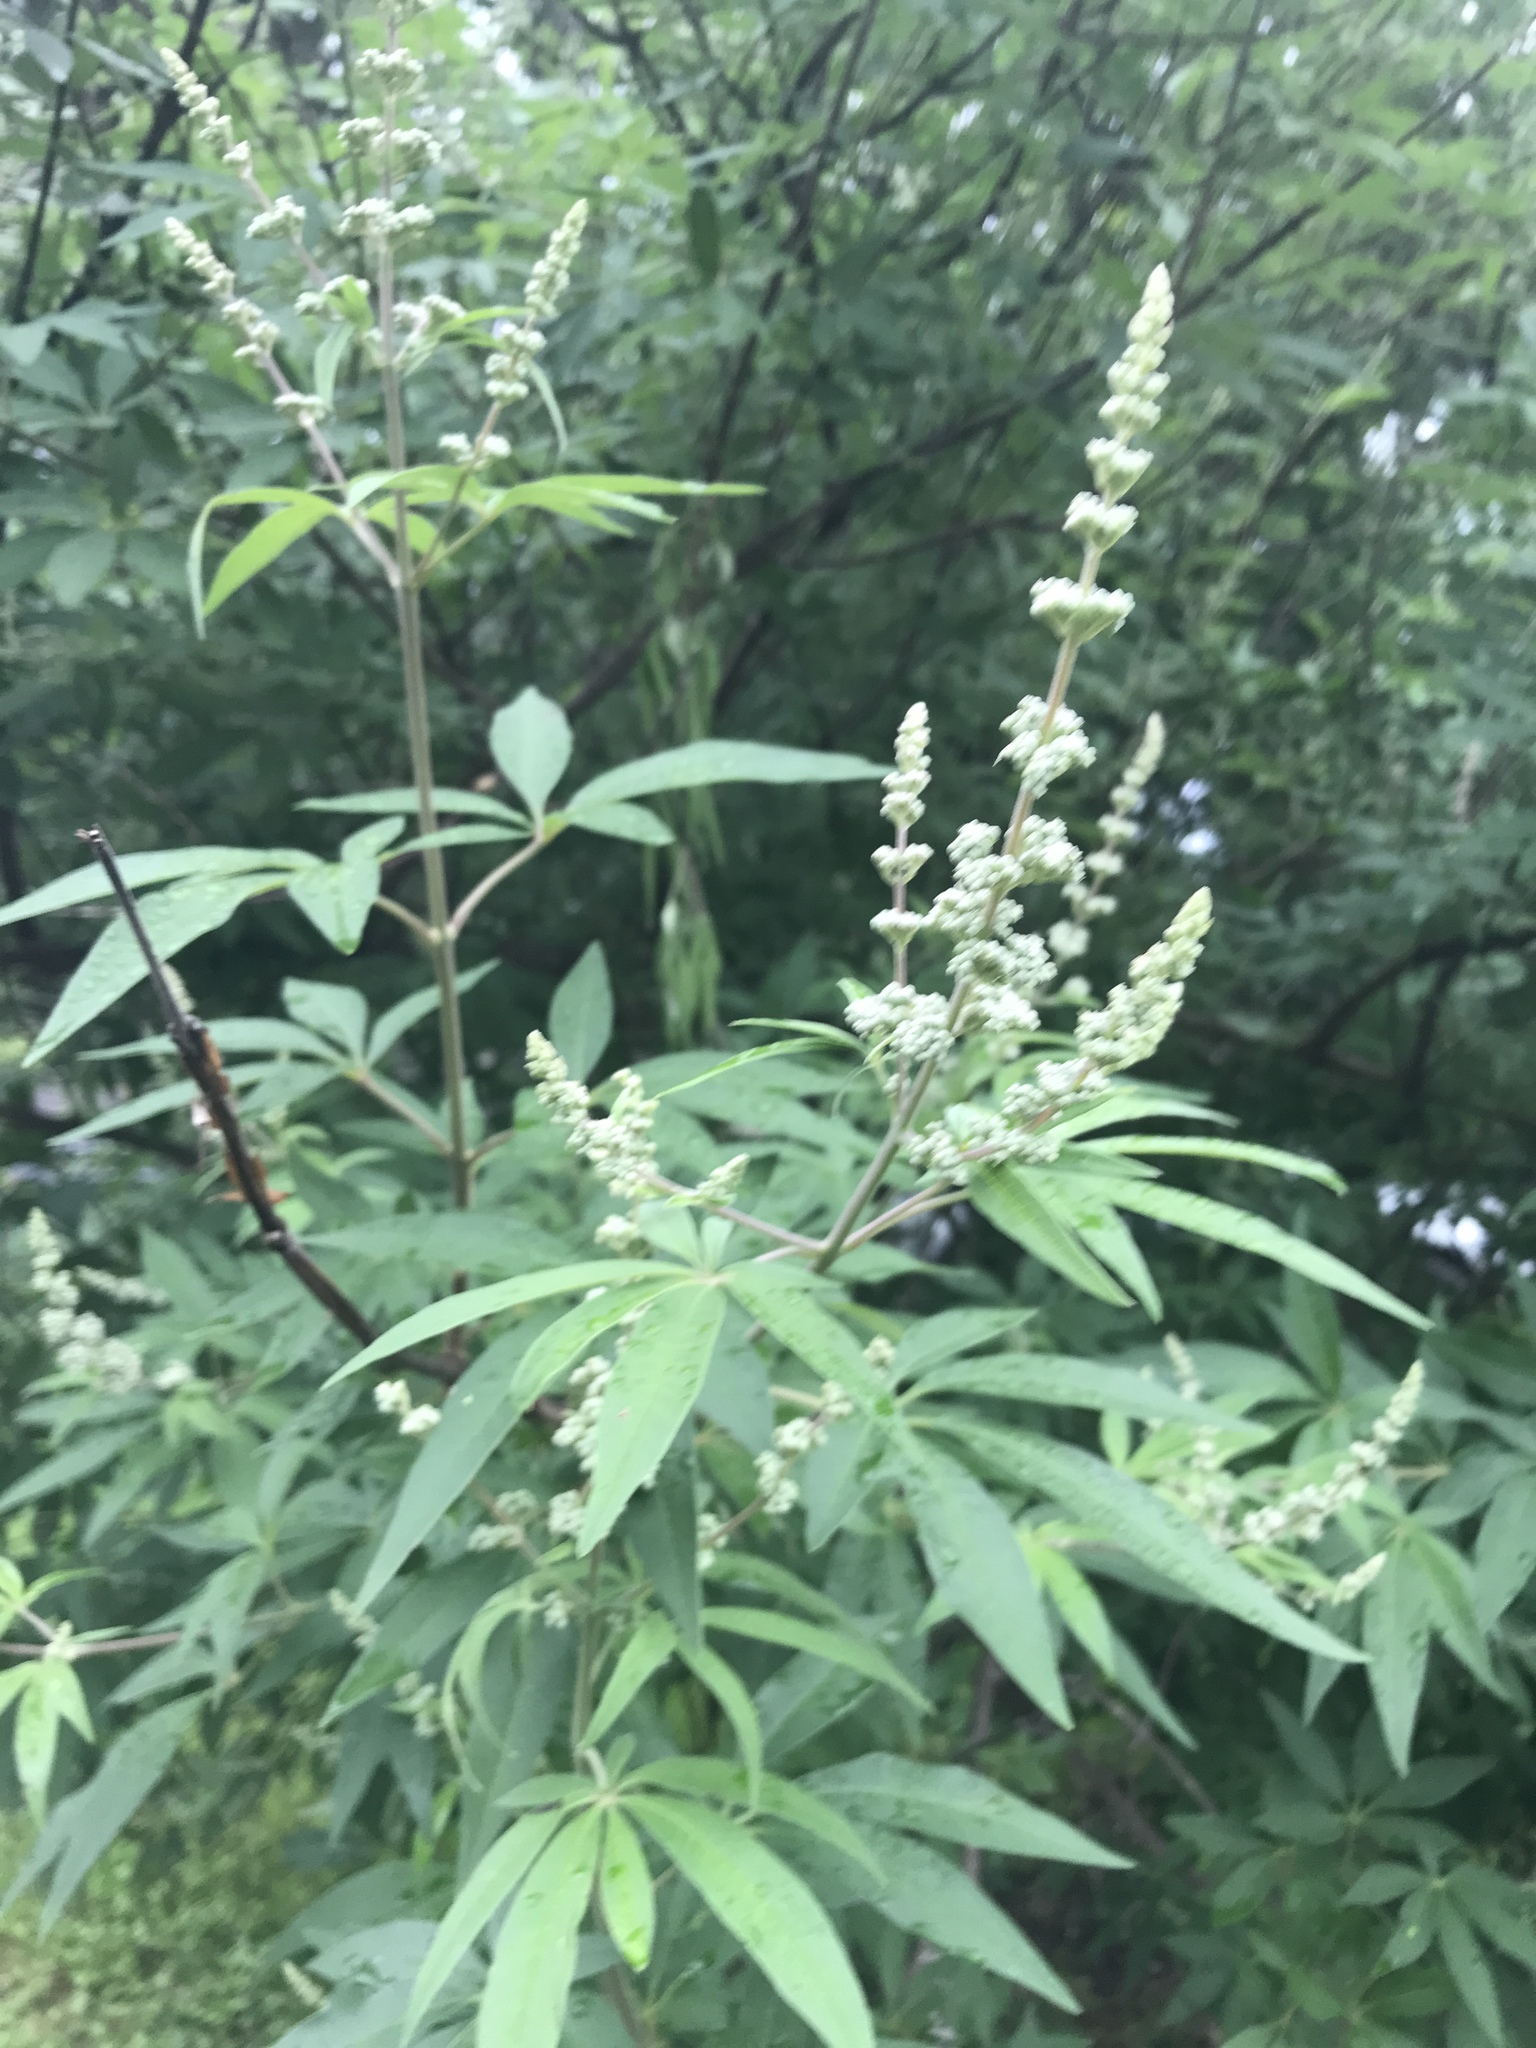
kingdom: Plantae
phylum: Tracheophyta
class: Magnoliopsida
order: Lamiales
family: Lamiaceae
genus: Vitex
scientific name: Vitex agnus-castus
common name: Chasteberry
